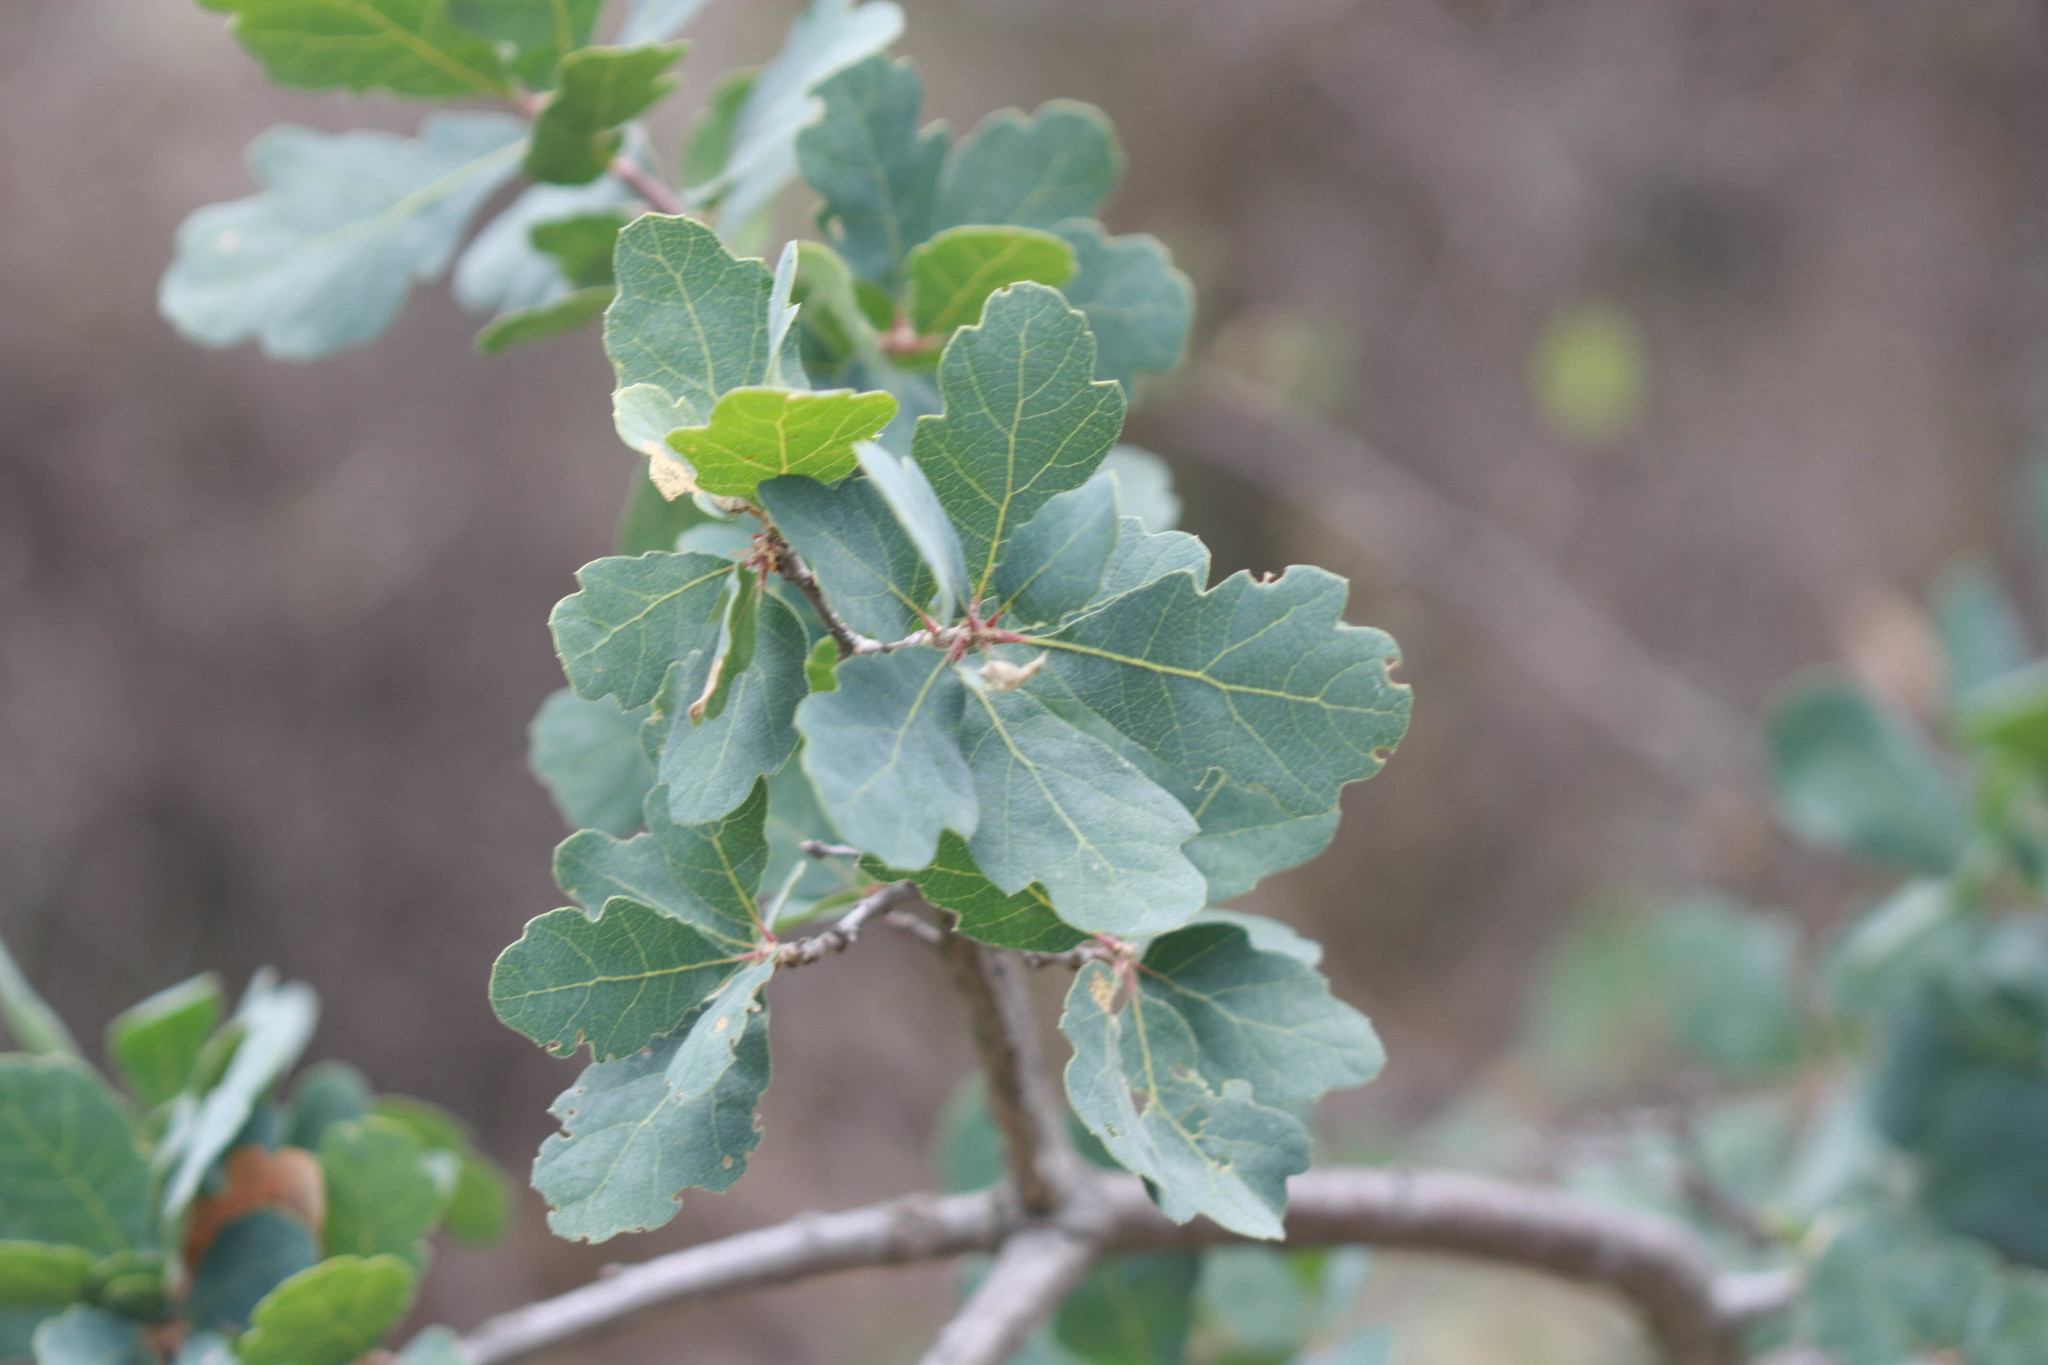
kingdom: Plantae
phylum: Tracheophyta
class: Magnoliopsida
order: Fagales
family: Fagaceae
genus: Quercus
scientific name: Quercus douglasii
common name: Blue oak
